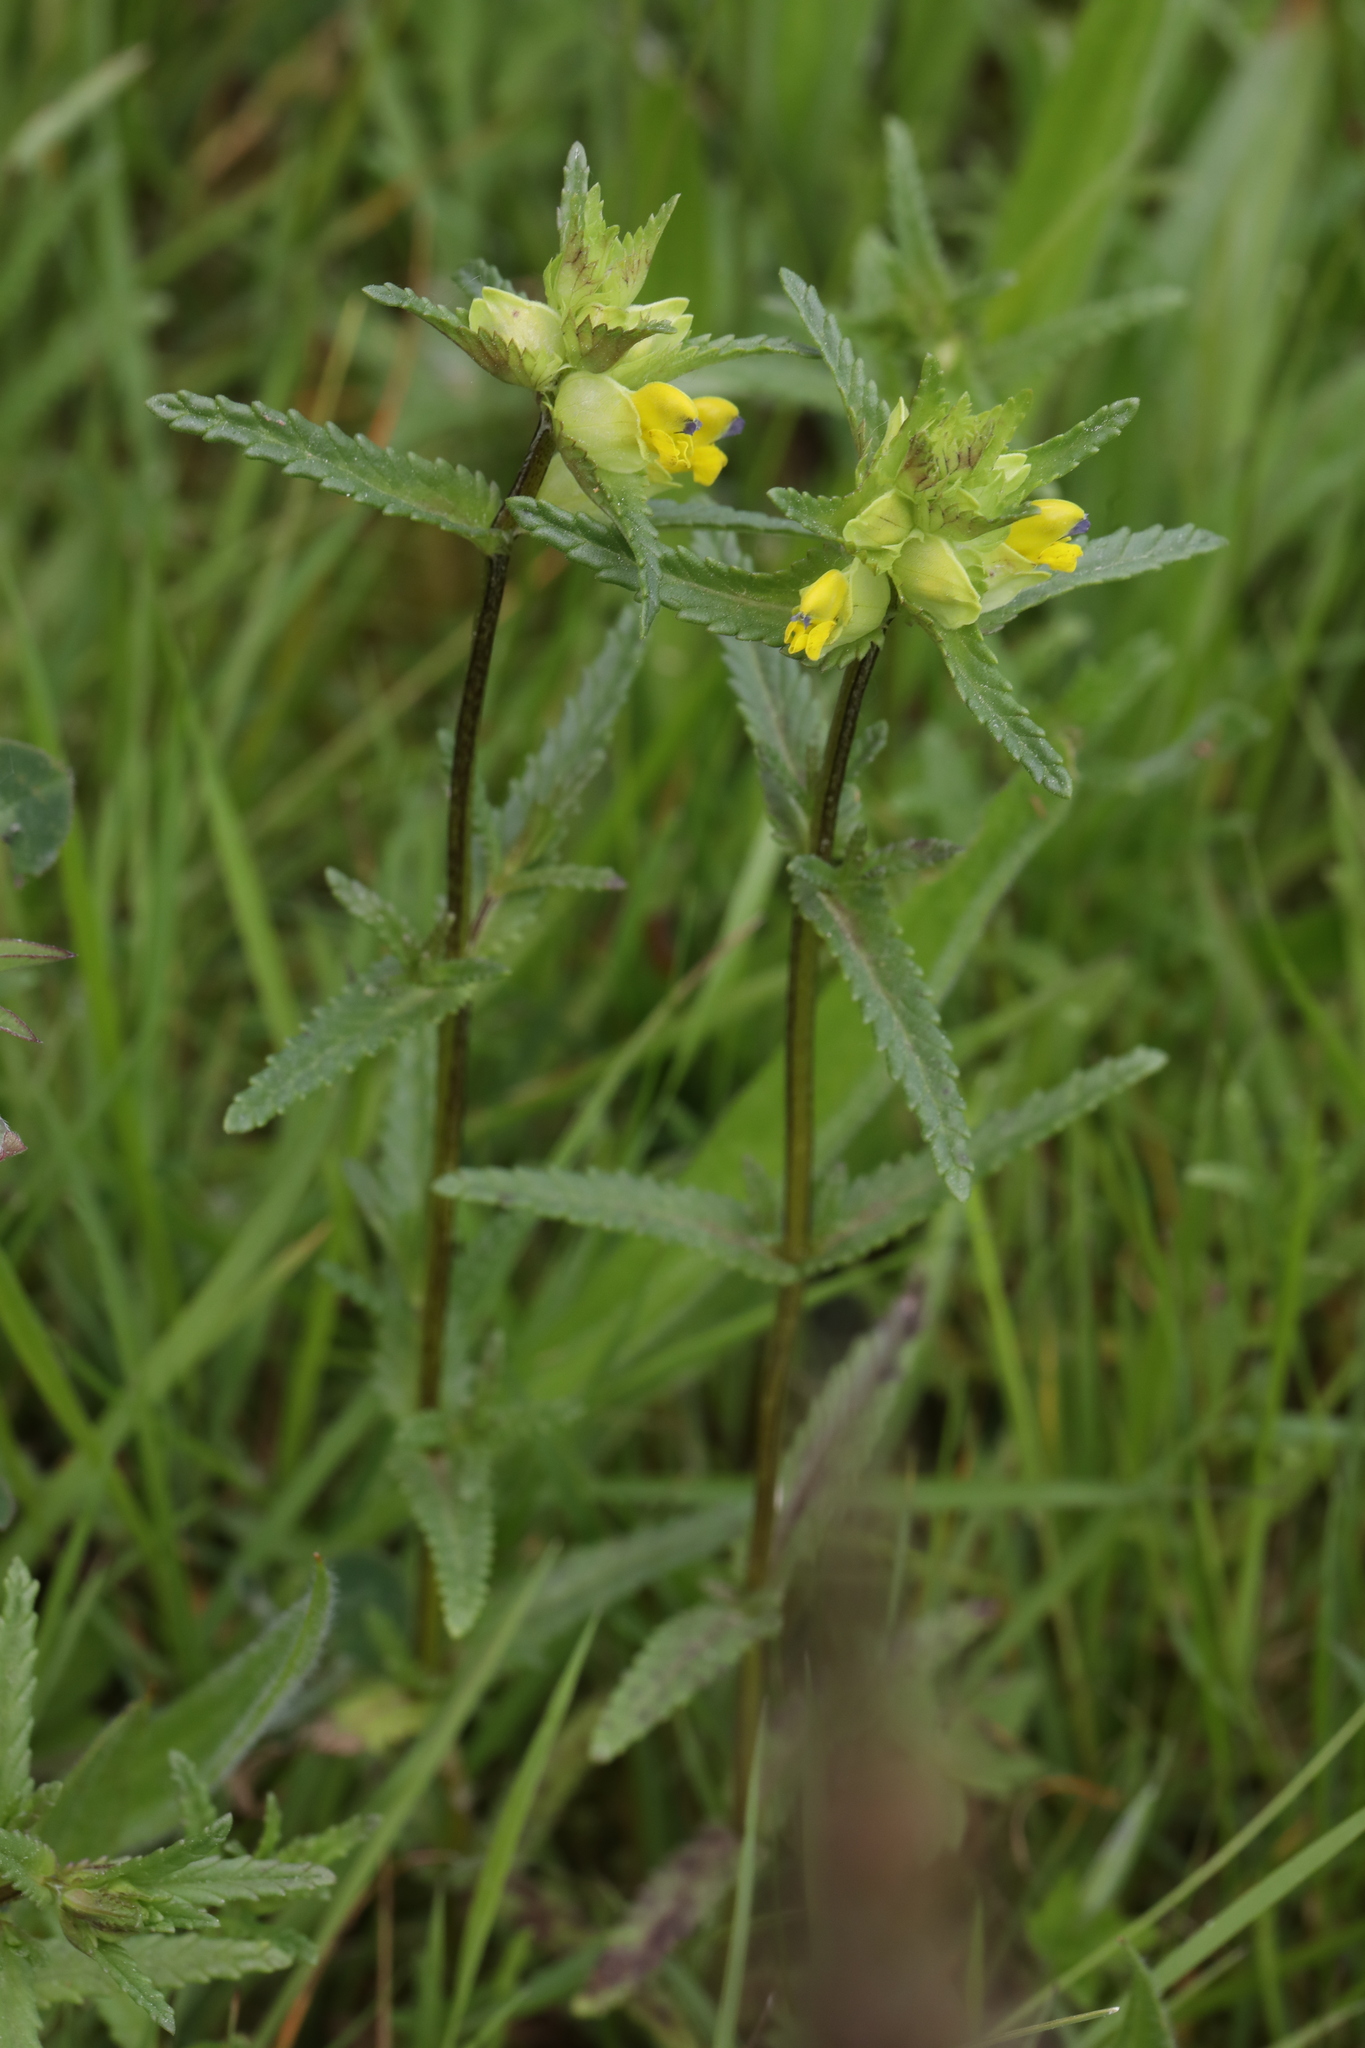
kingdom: Plantae
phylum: Tracheophyta
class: Magnoliopsida
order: Lamiales
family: Orobanchaceae
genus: Rhinanthus
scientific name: Rhinanthus minor
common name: Yellow-rattle
